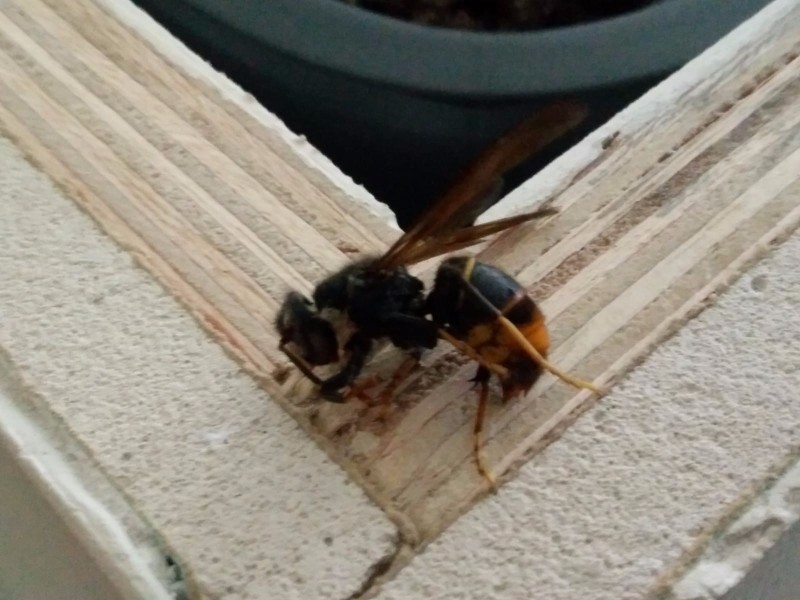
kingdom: Animalia
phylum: Arthropoda
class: Insecta
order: Hymenoptera
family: Vespidae
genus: Vespa
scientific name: Vespa velutina
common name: Asian hornet
